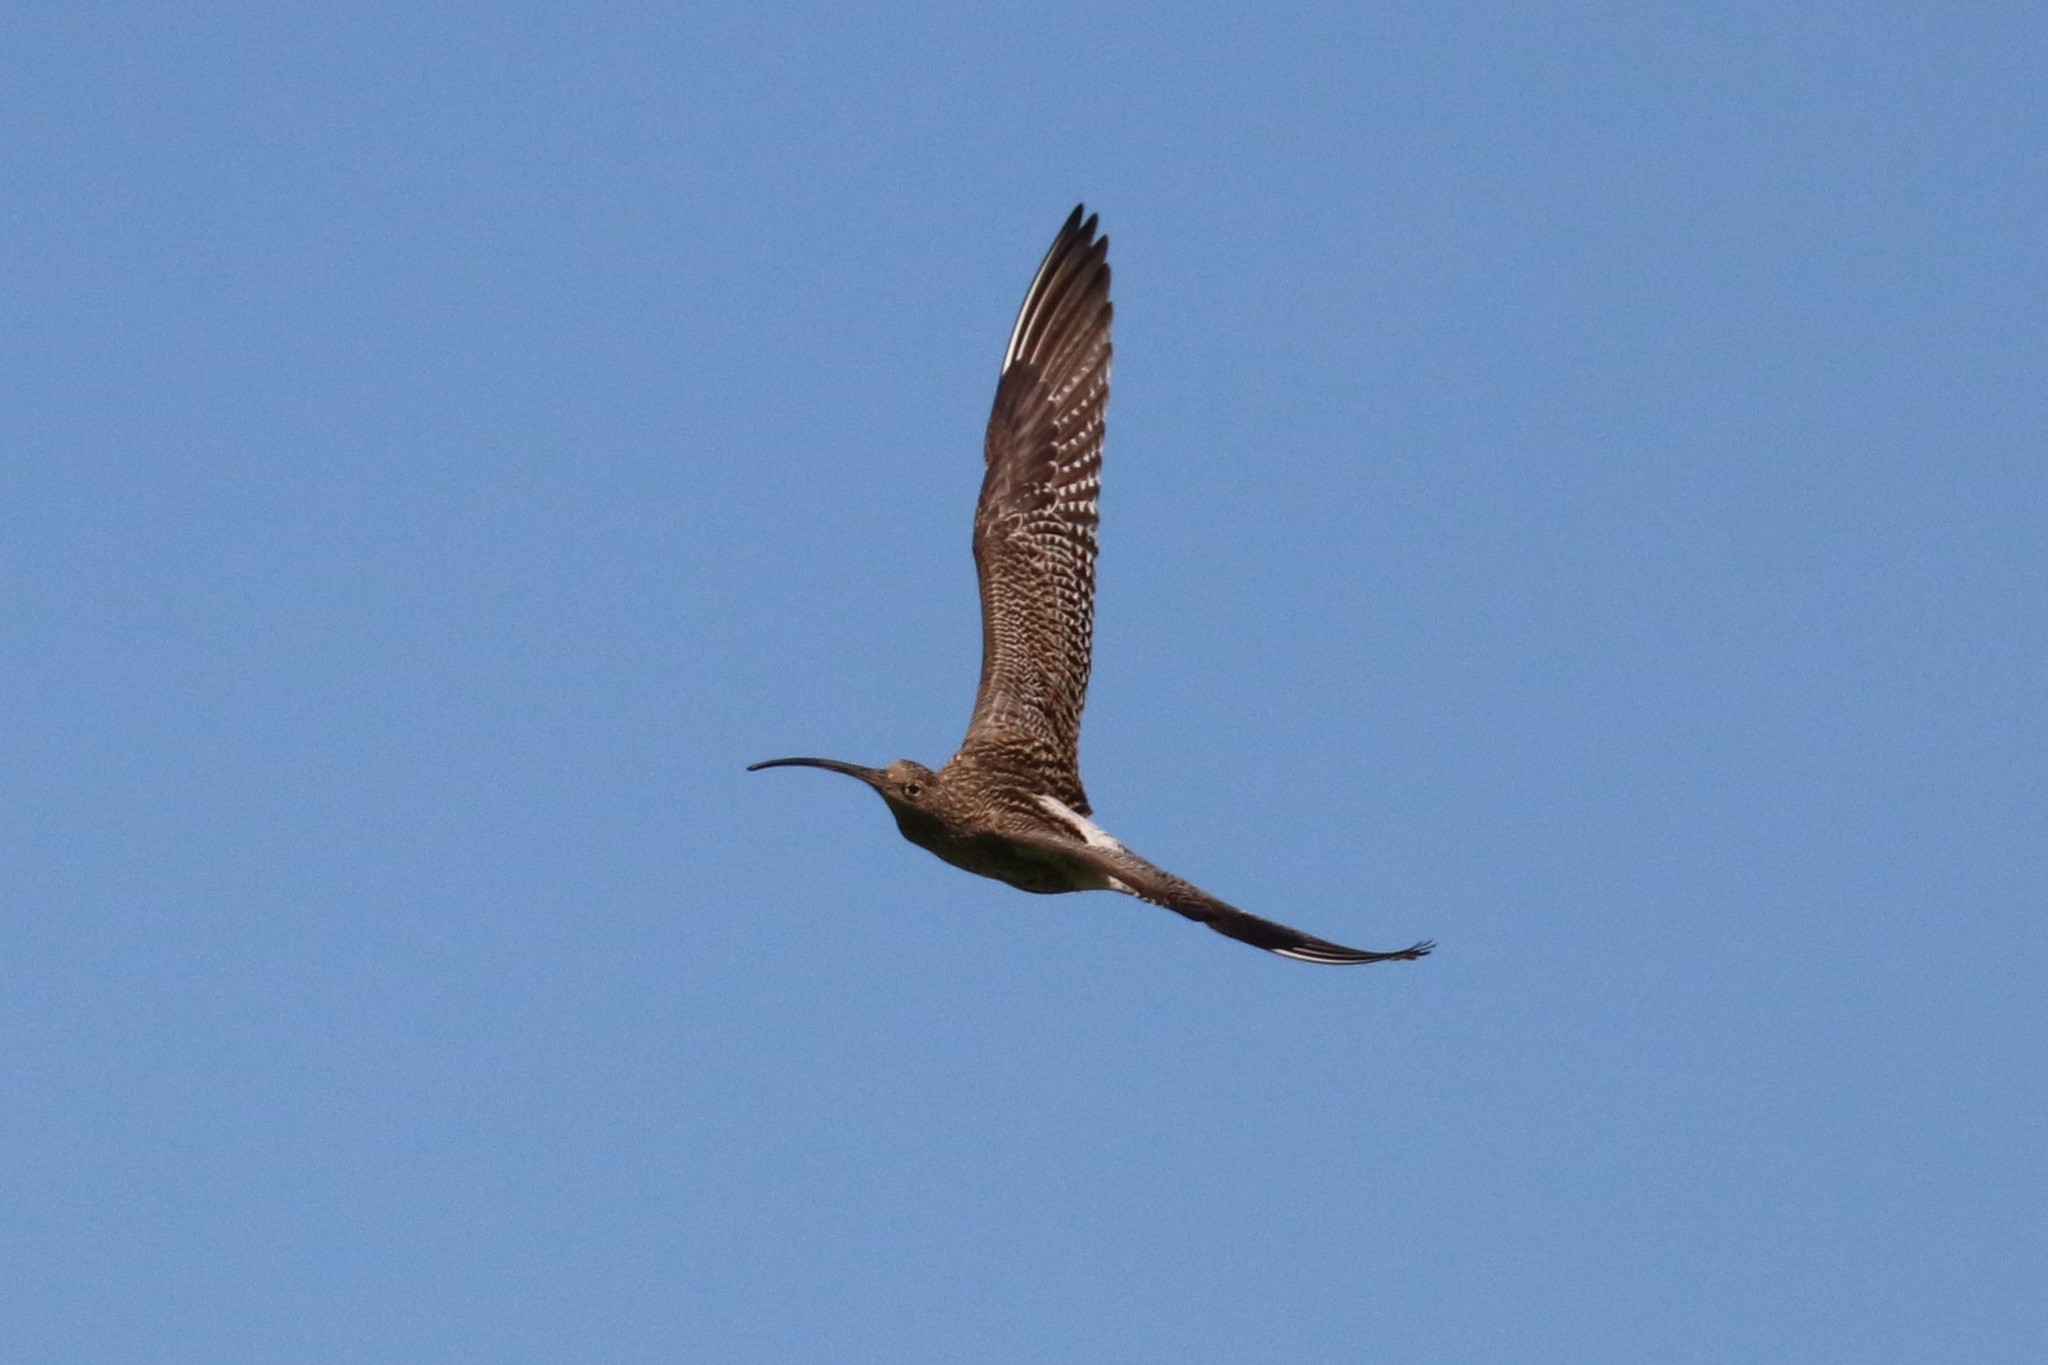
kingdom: Animalia
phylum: Chordata
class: Aves
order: Charadriiformes
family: Scolopacidae
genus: Numenius
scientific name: Numenius arquata
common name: Eurasian curlew
